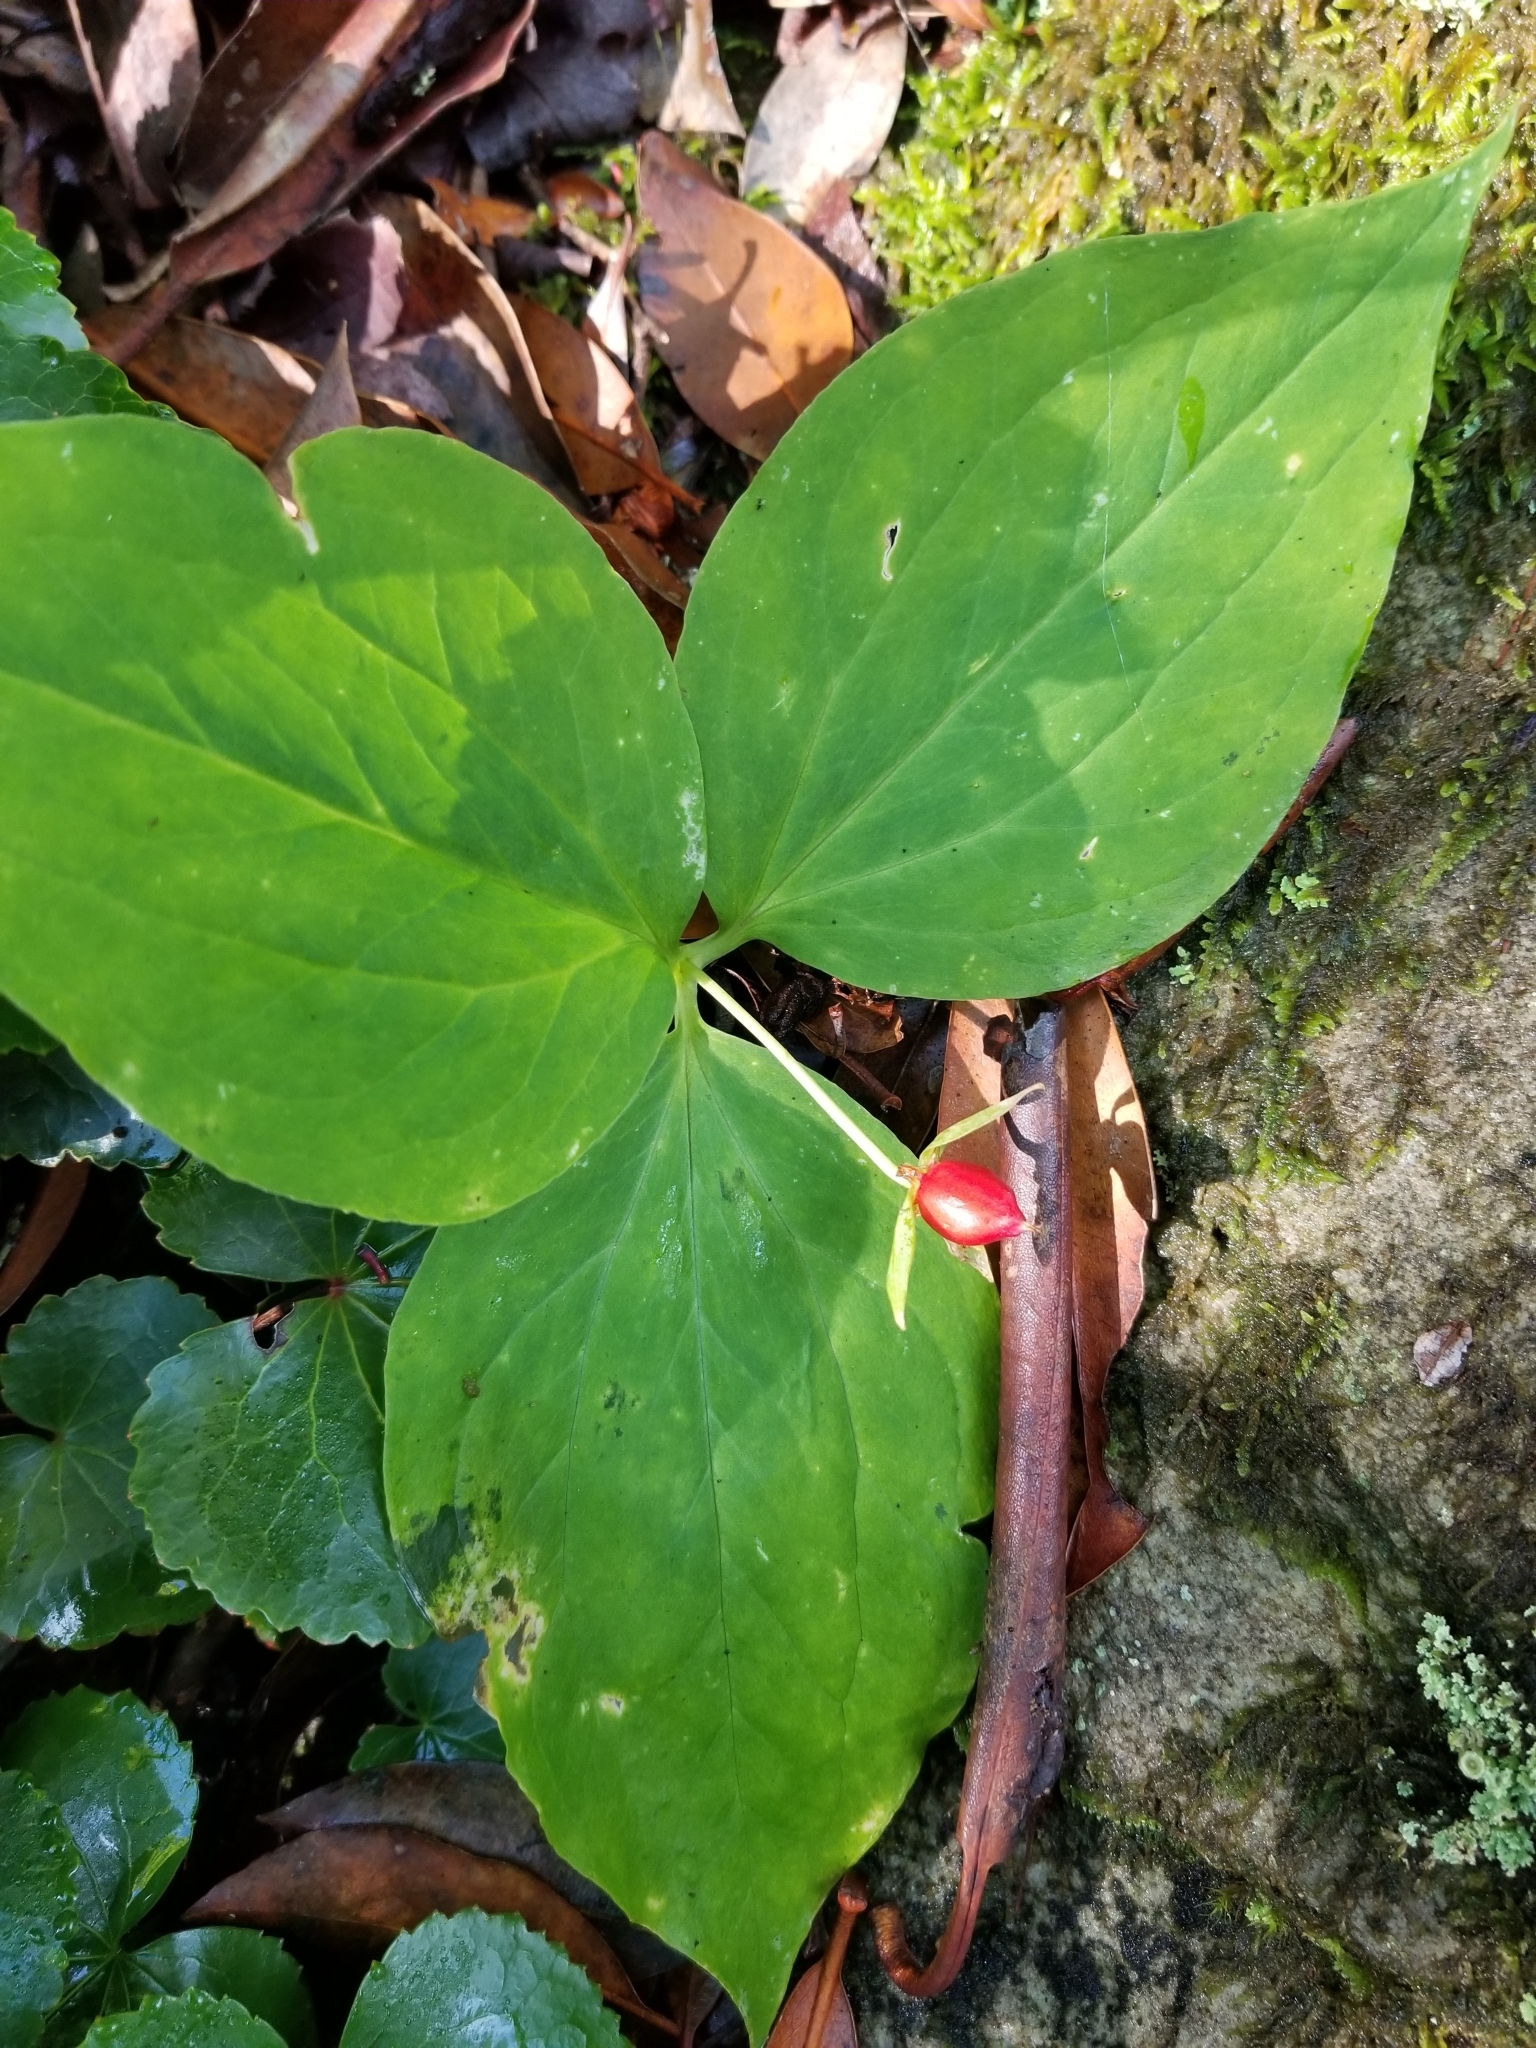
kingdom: Plantae
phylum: Tracheophyta
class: Liliopsida
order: Liliales
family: Melanthiaceae
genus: Trillium
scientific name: Trillium undulatum
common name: Paint trillium
